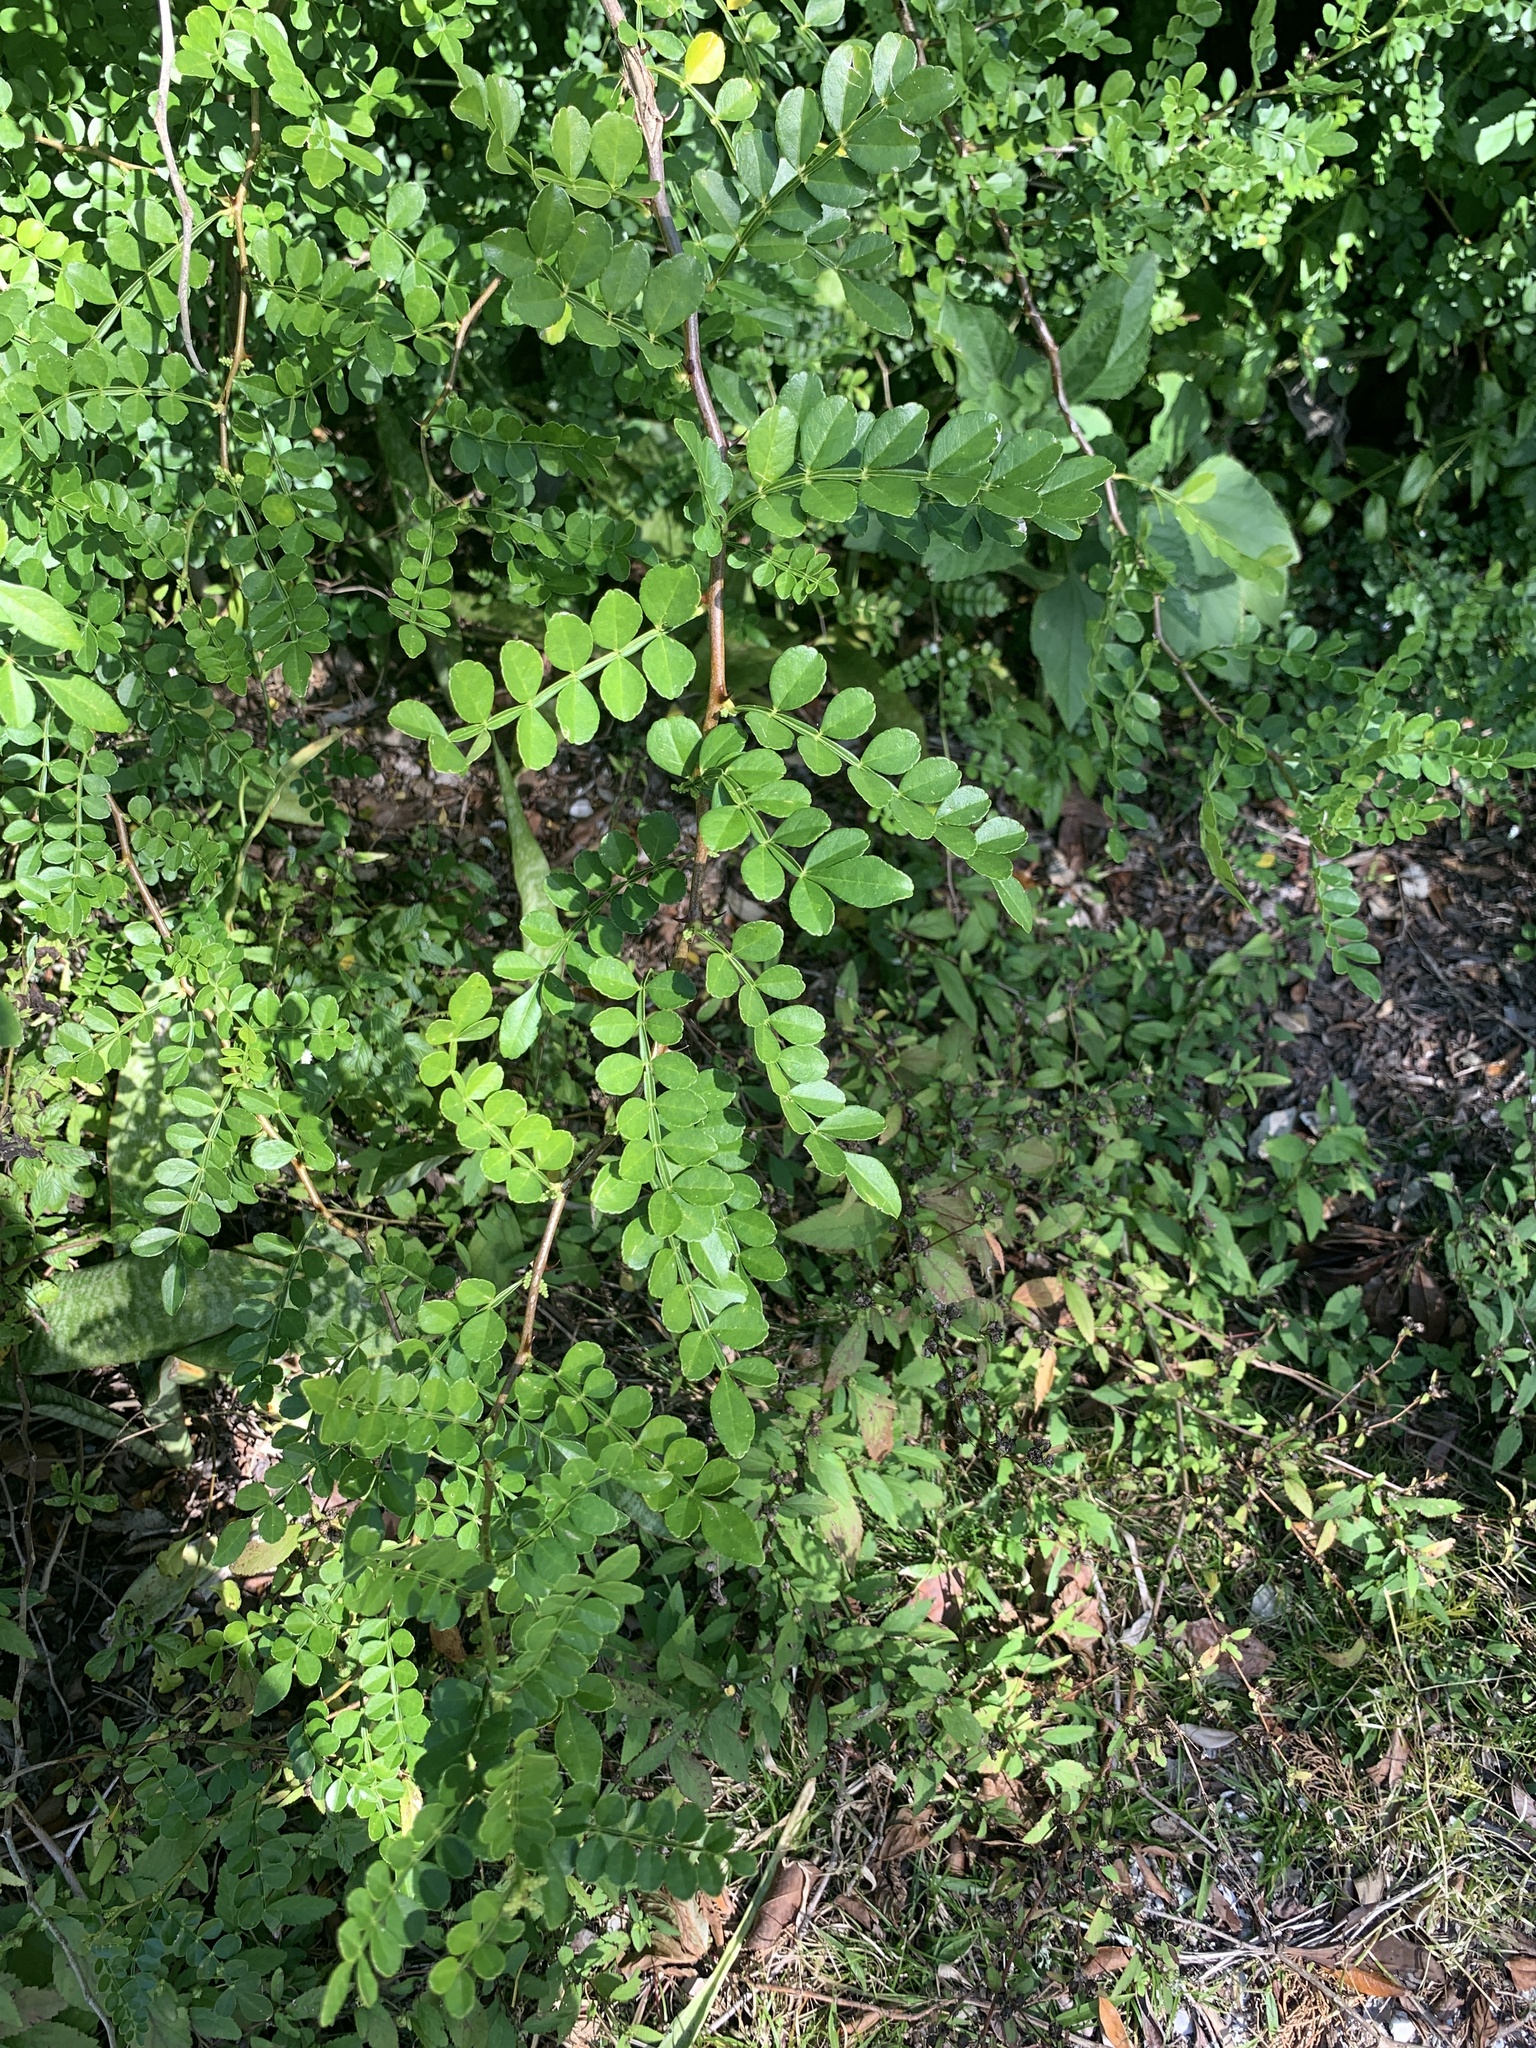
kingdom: Plantae
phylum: Tracheophyta
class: Magnoliopsida
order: Sapindales
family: Rutaceae
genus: Zanthoxylum
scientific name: Zanthoxylum fagara
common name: Lime prickly-ash
